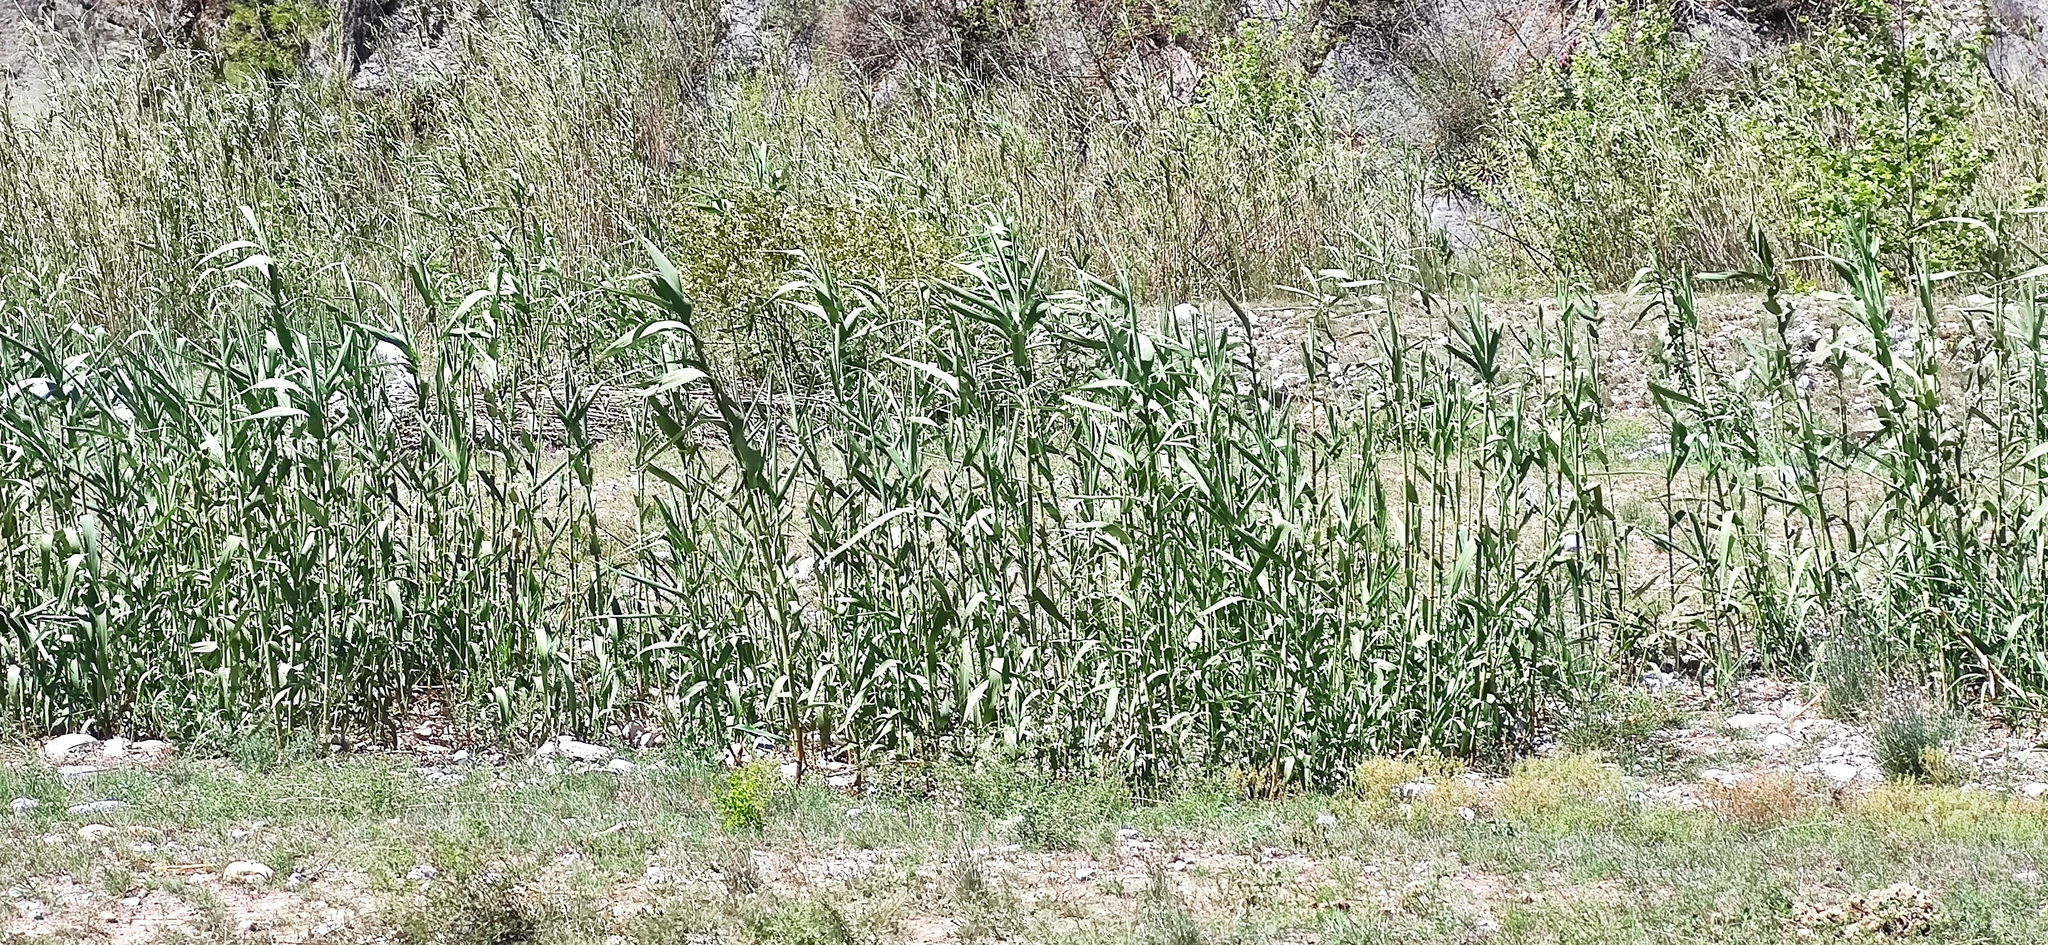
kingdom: Plantae
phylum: Tracheophyta
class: Liliopsida
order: Poales
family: Poaceae
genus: Arundo
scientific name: Arundo donax
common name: Giant reed
